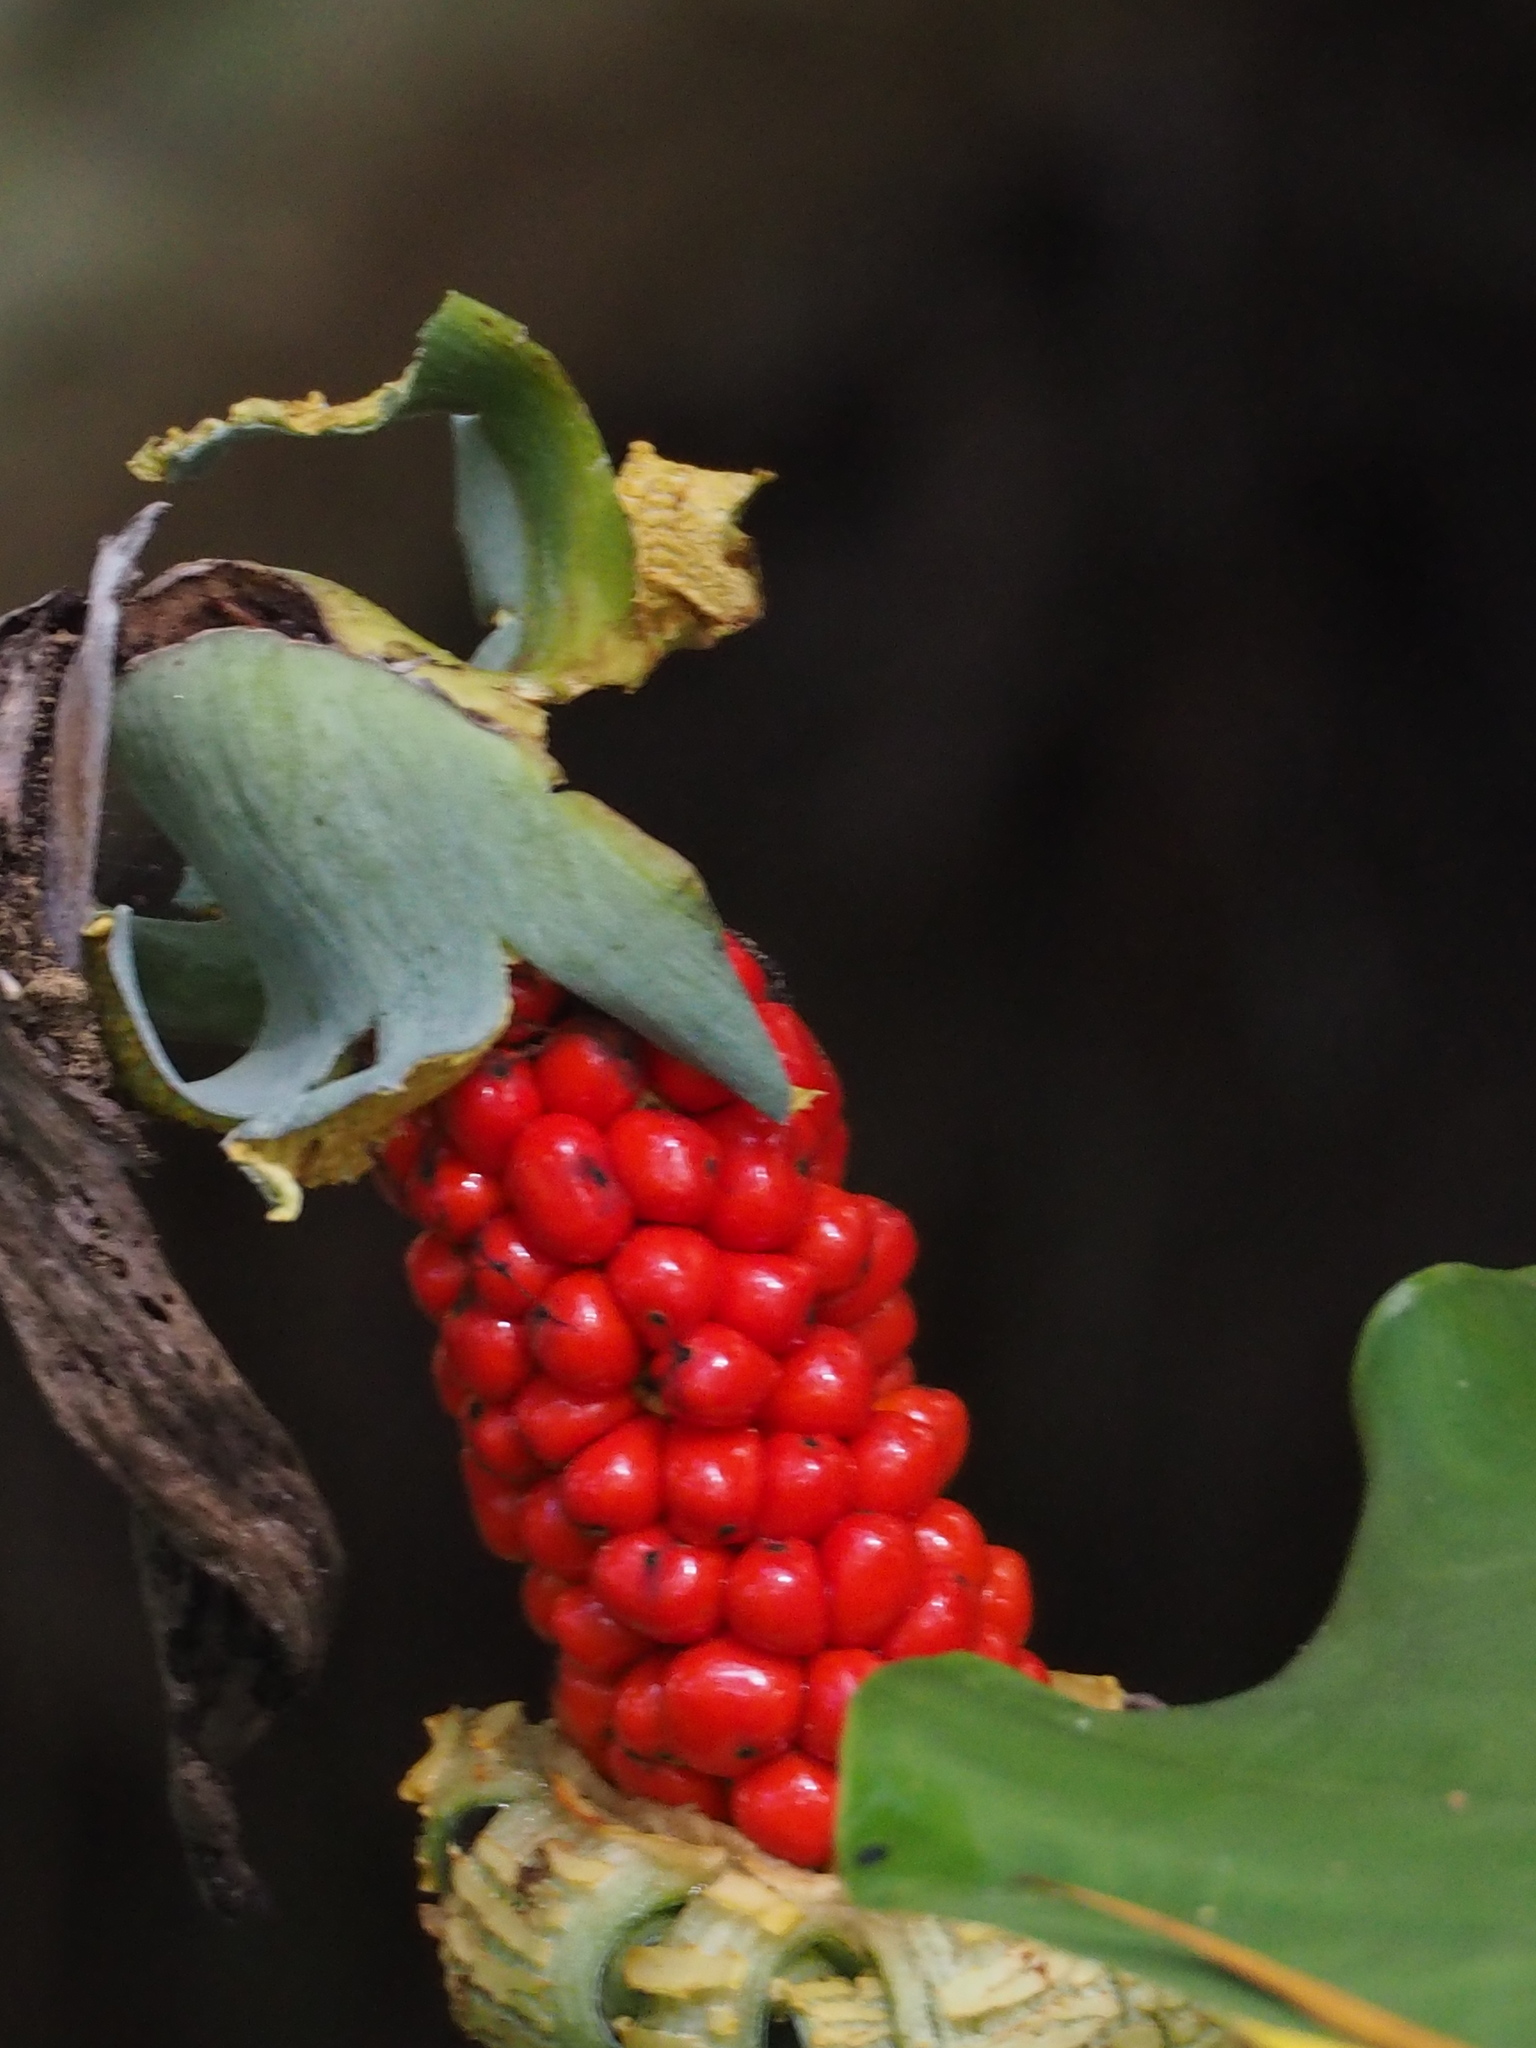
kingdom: Plantae
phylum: Tracheophyta
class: Liliopsida
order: Alismatales
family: Araceae
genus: Alocasia
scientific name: Alocasia odora
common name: Asian taro
